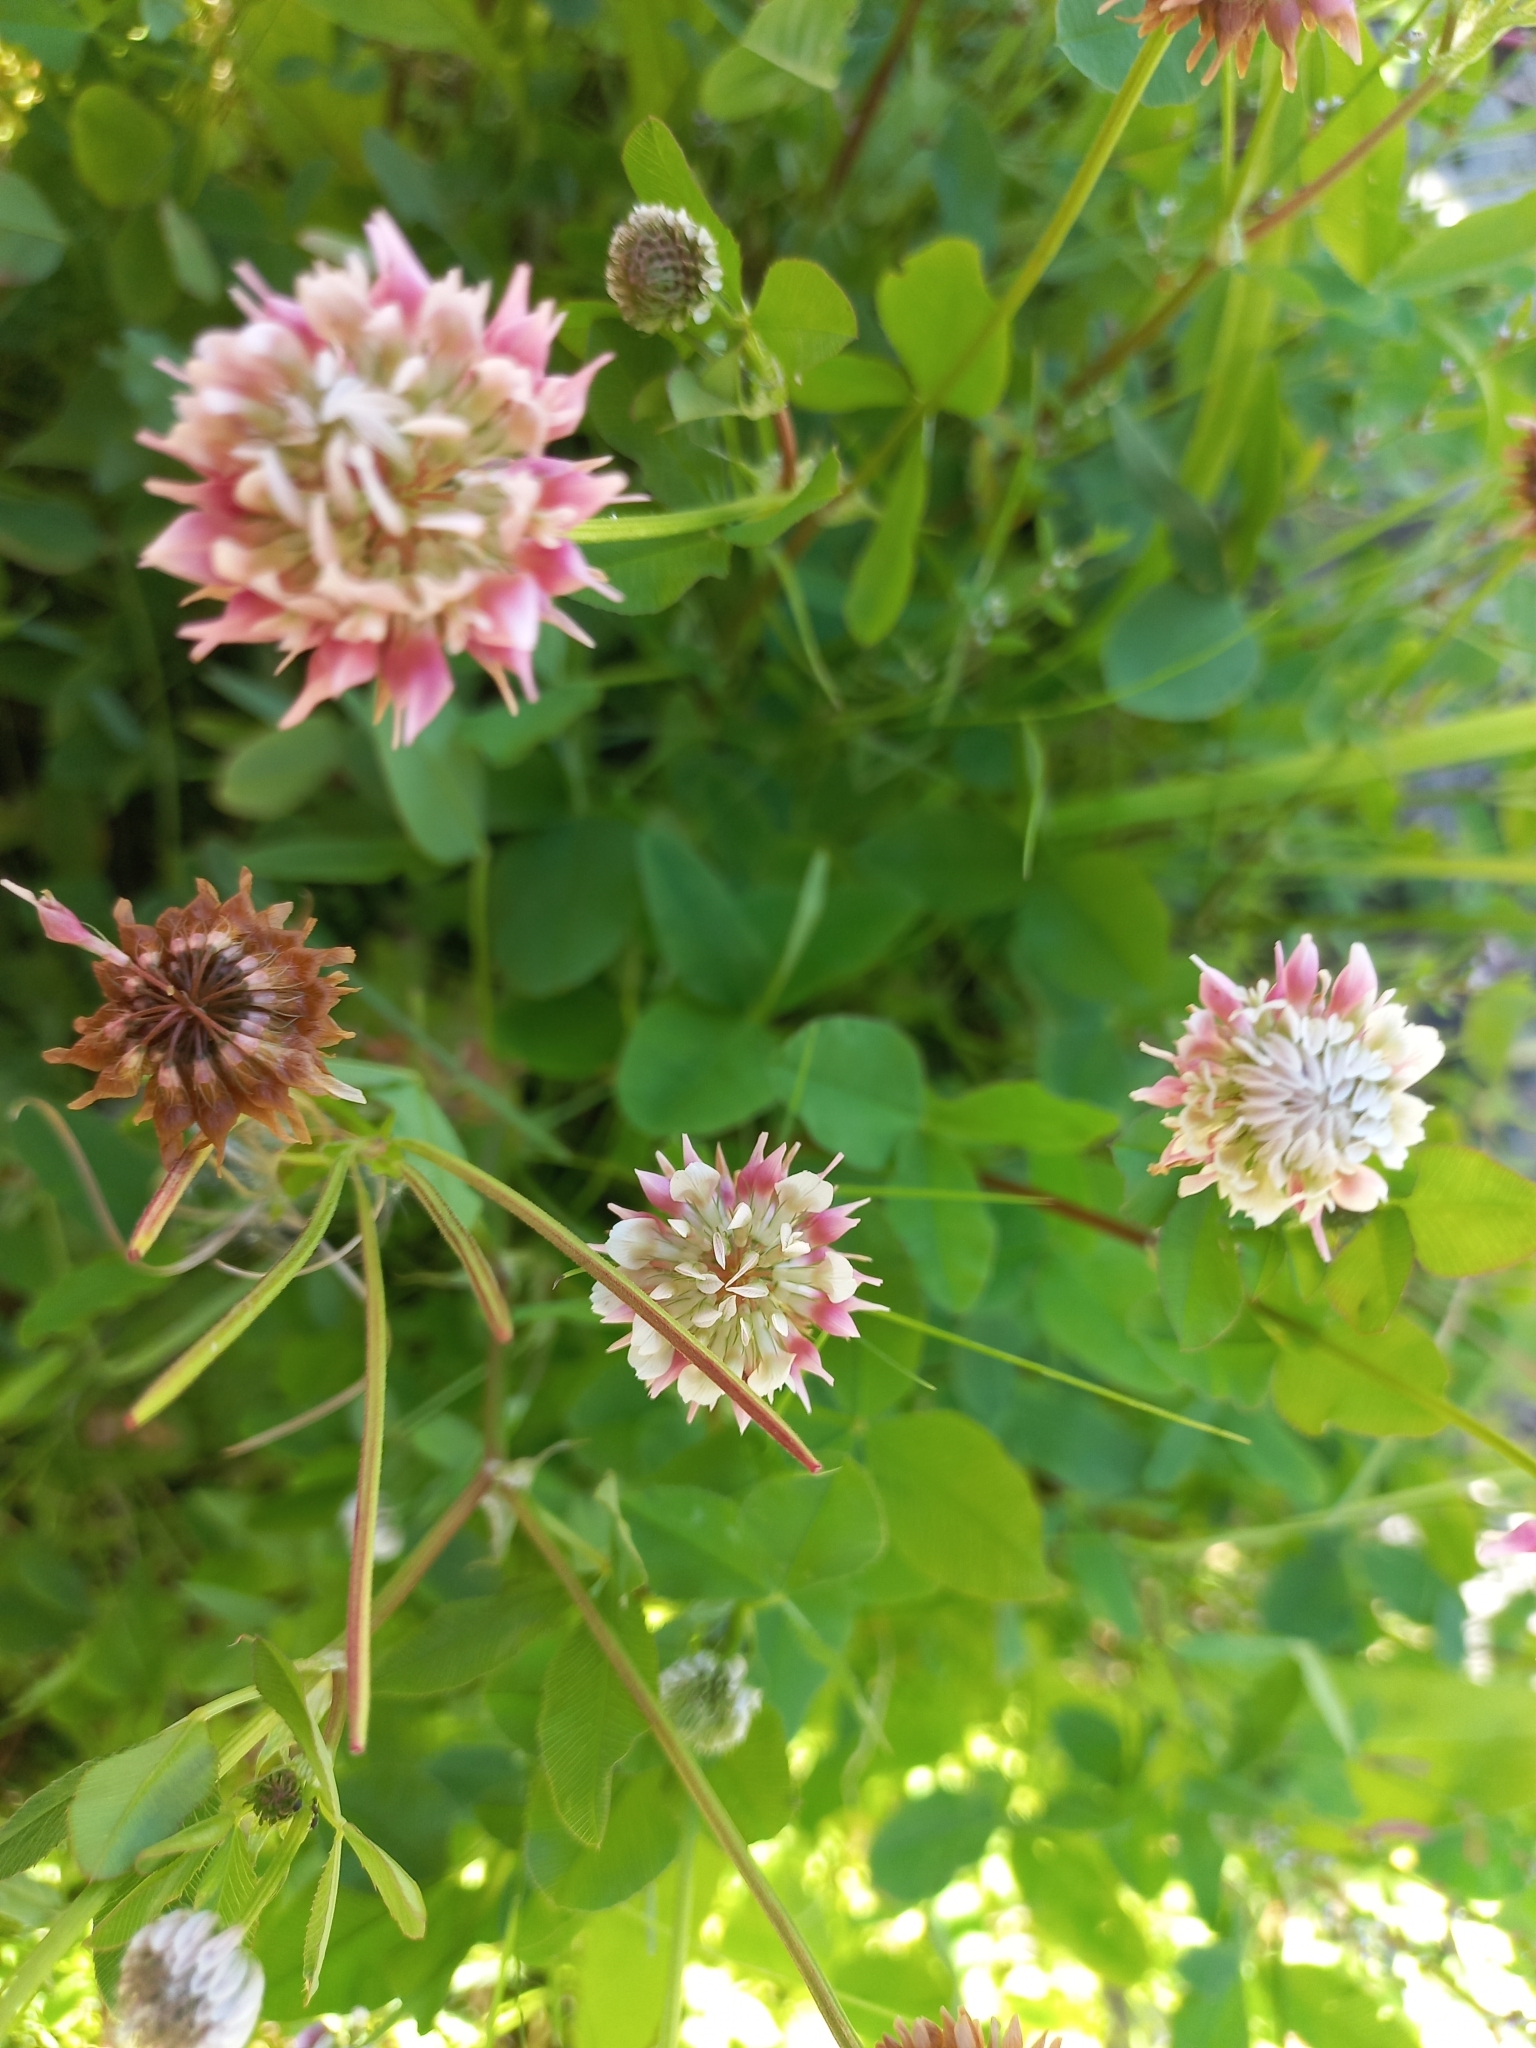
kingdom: Plantae
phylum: Tracheophyta
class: Magnoliopsida
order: Fabales
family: Fabaceae
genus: Trifolium
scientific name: Trifolium hybridum
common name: Alsike clover
